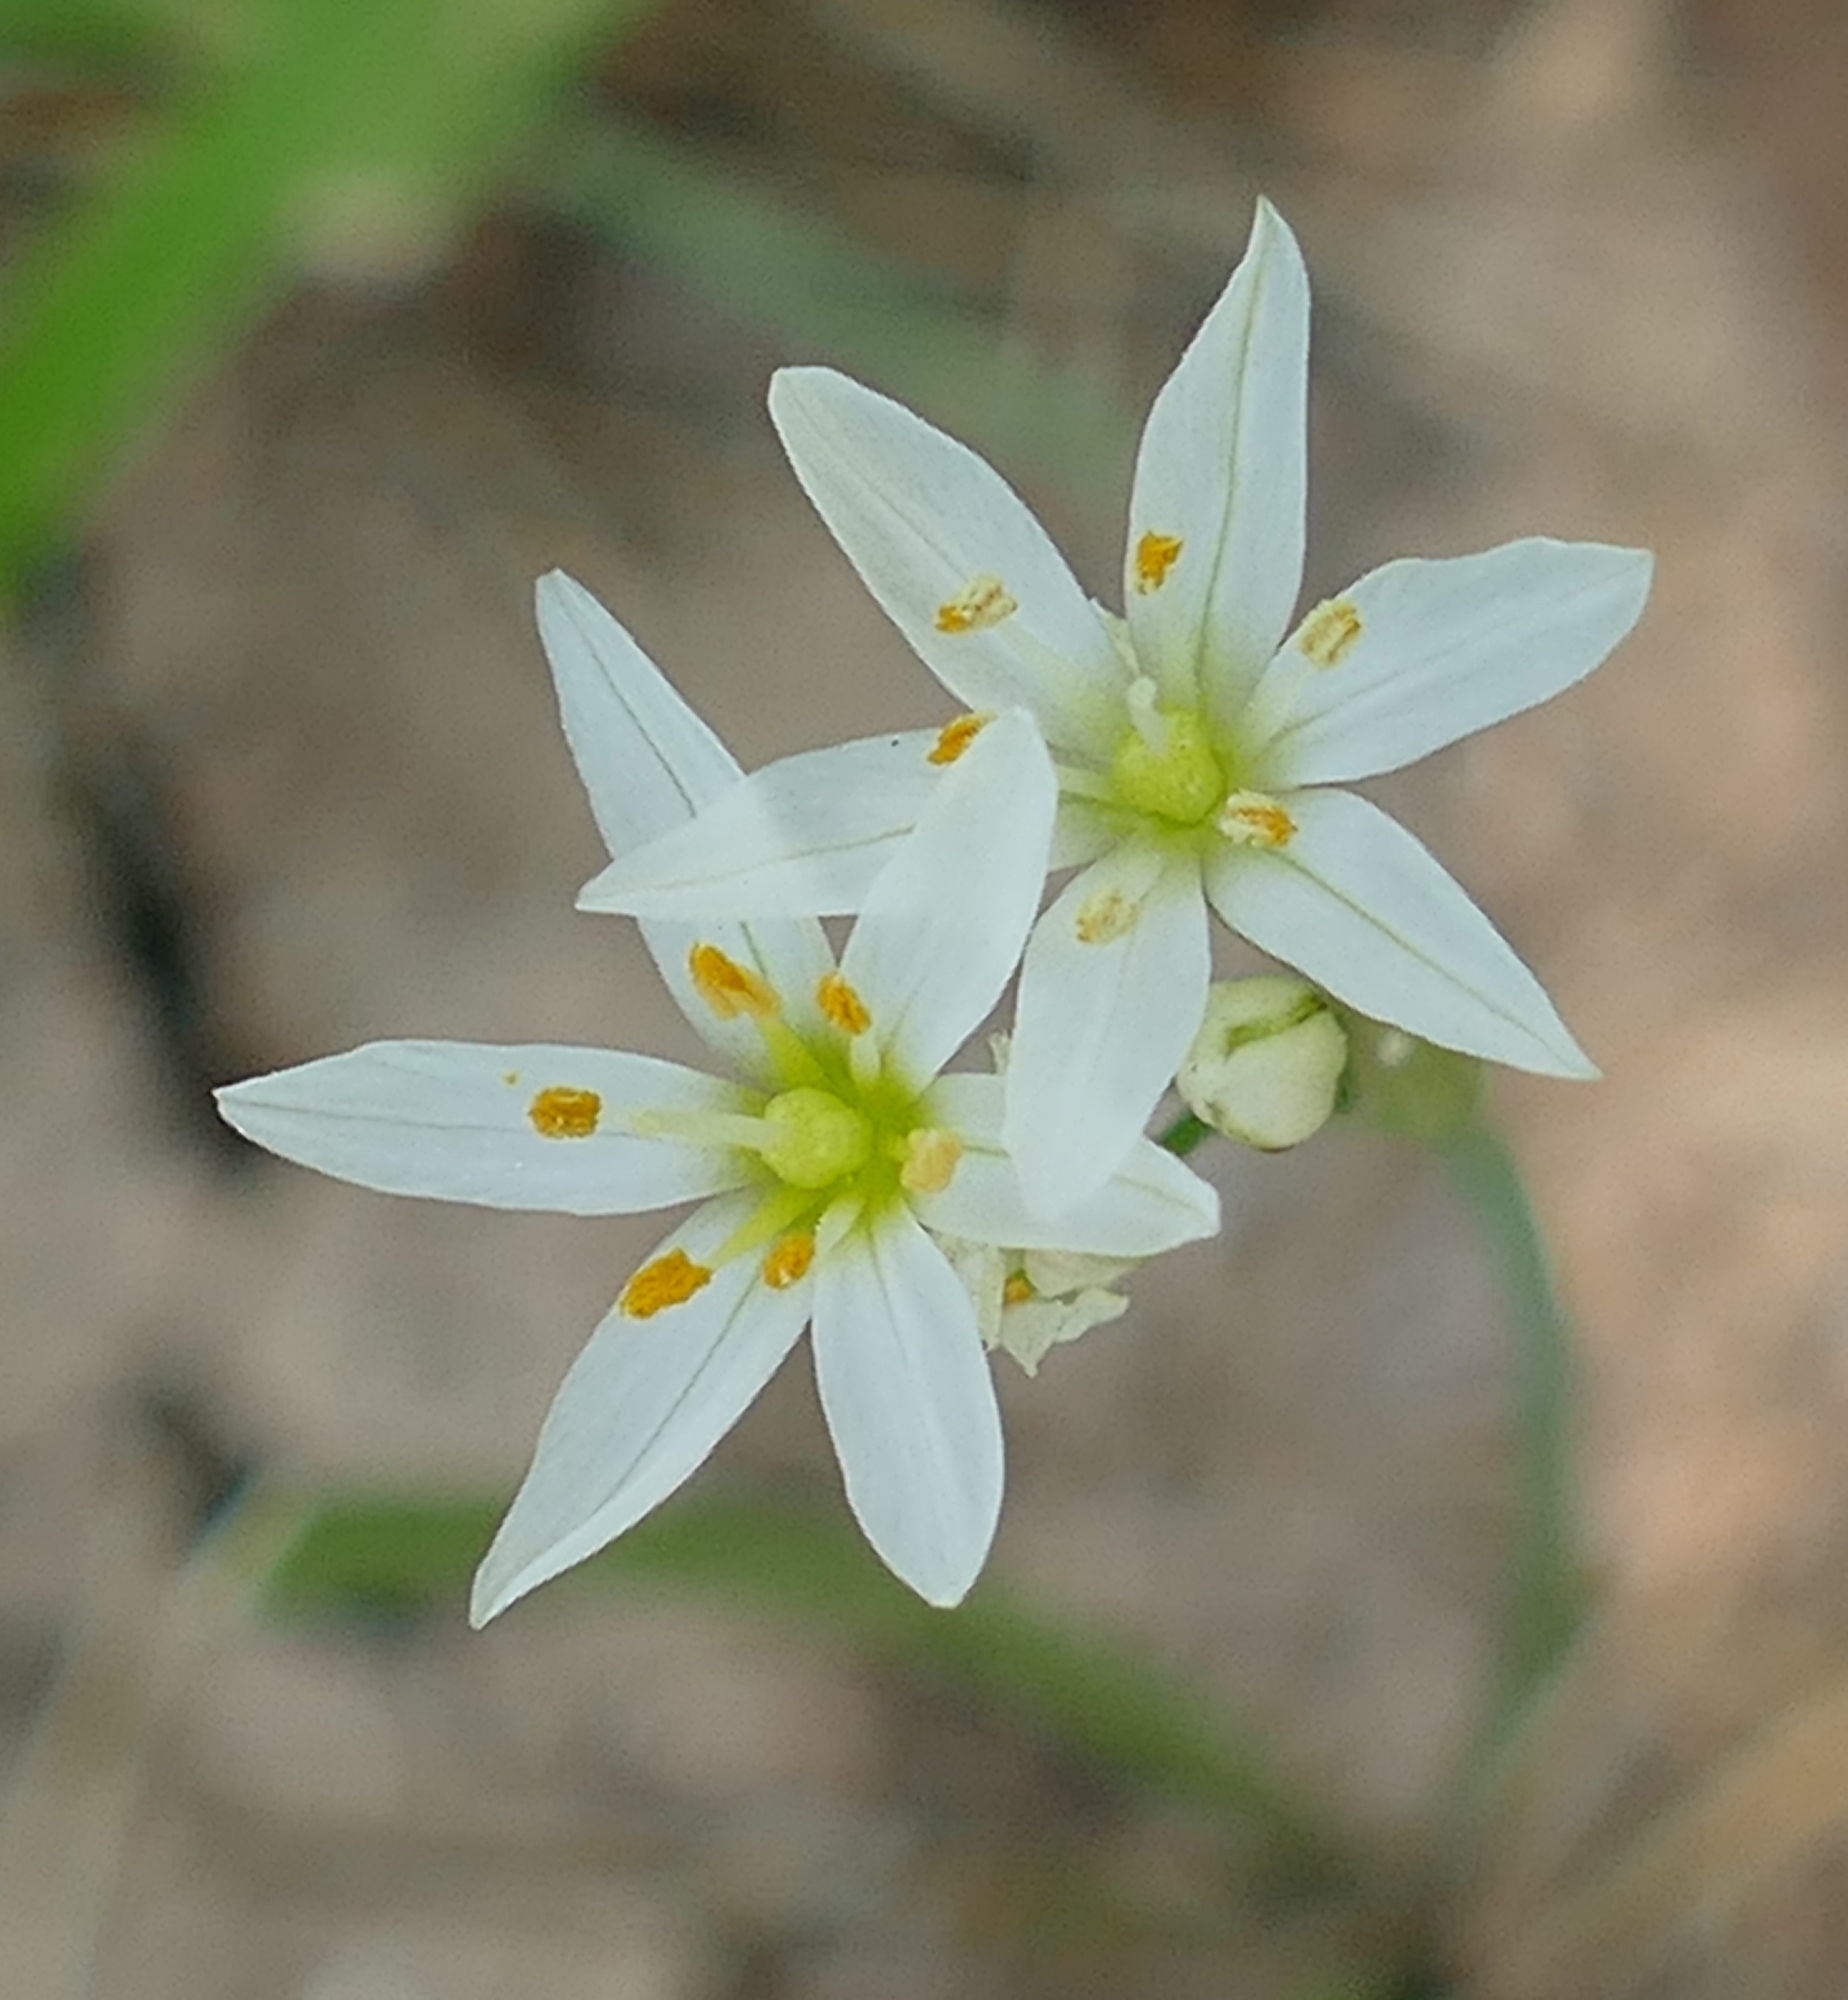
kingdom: Plantae
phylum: Tracheophyta
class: Liliopsida
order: Asparagales
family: Amaryllidaceae
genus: Nothoscordum
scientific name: Nothoscordum bivalve
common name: Crow-poison
